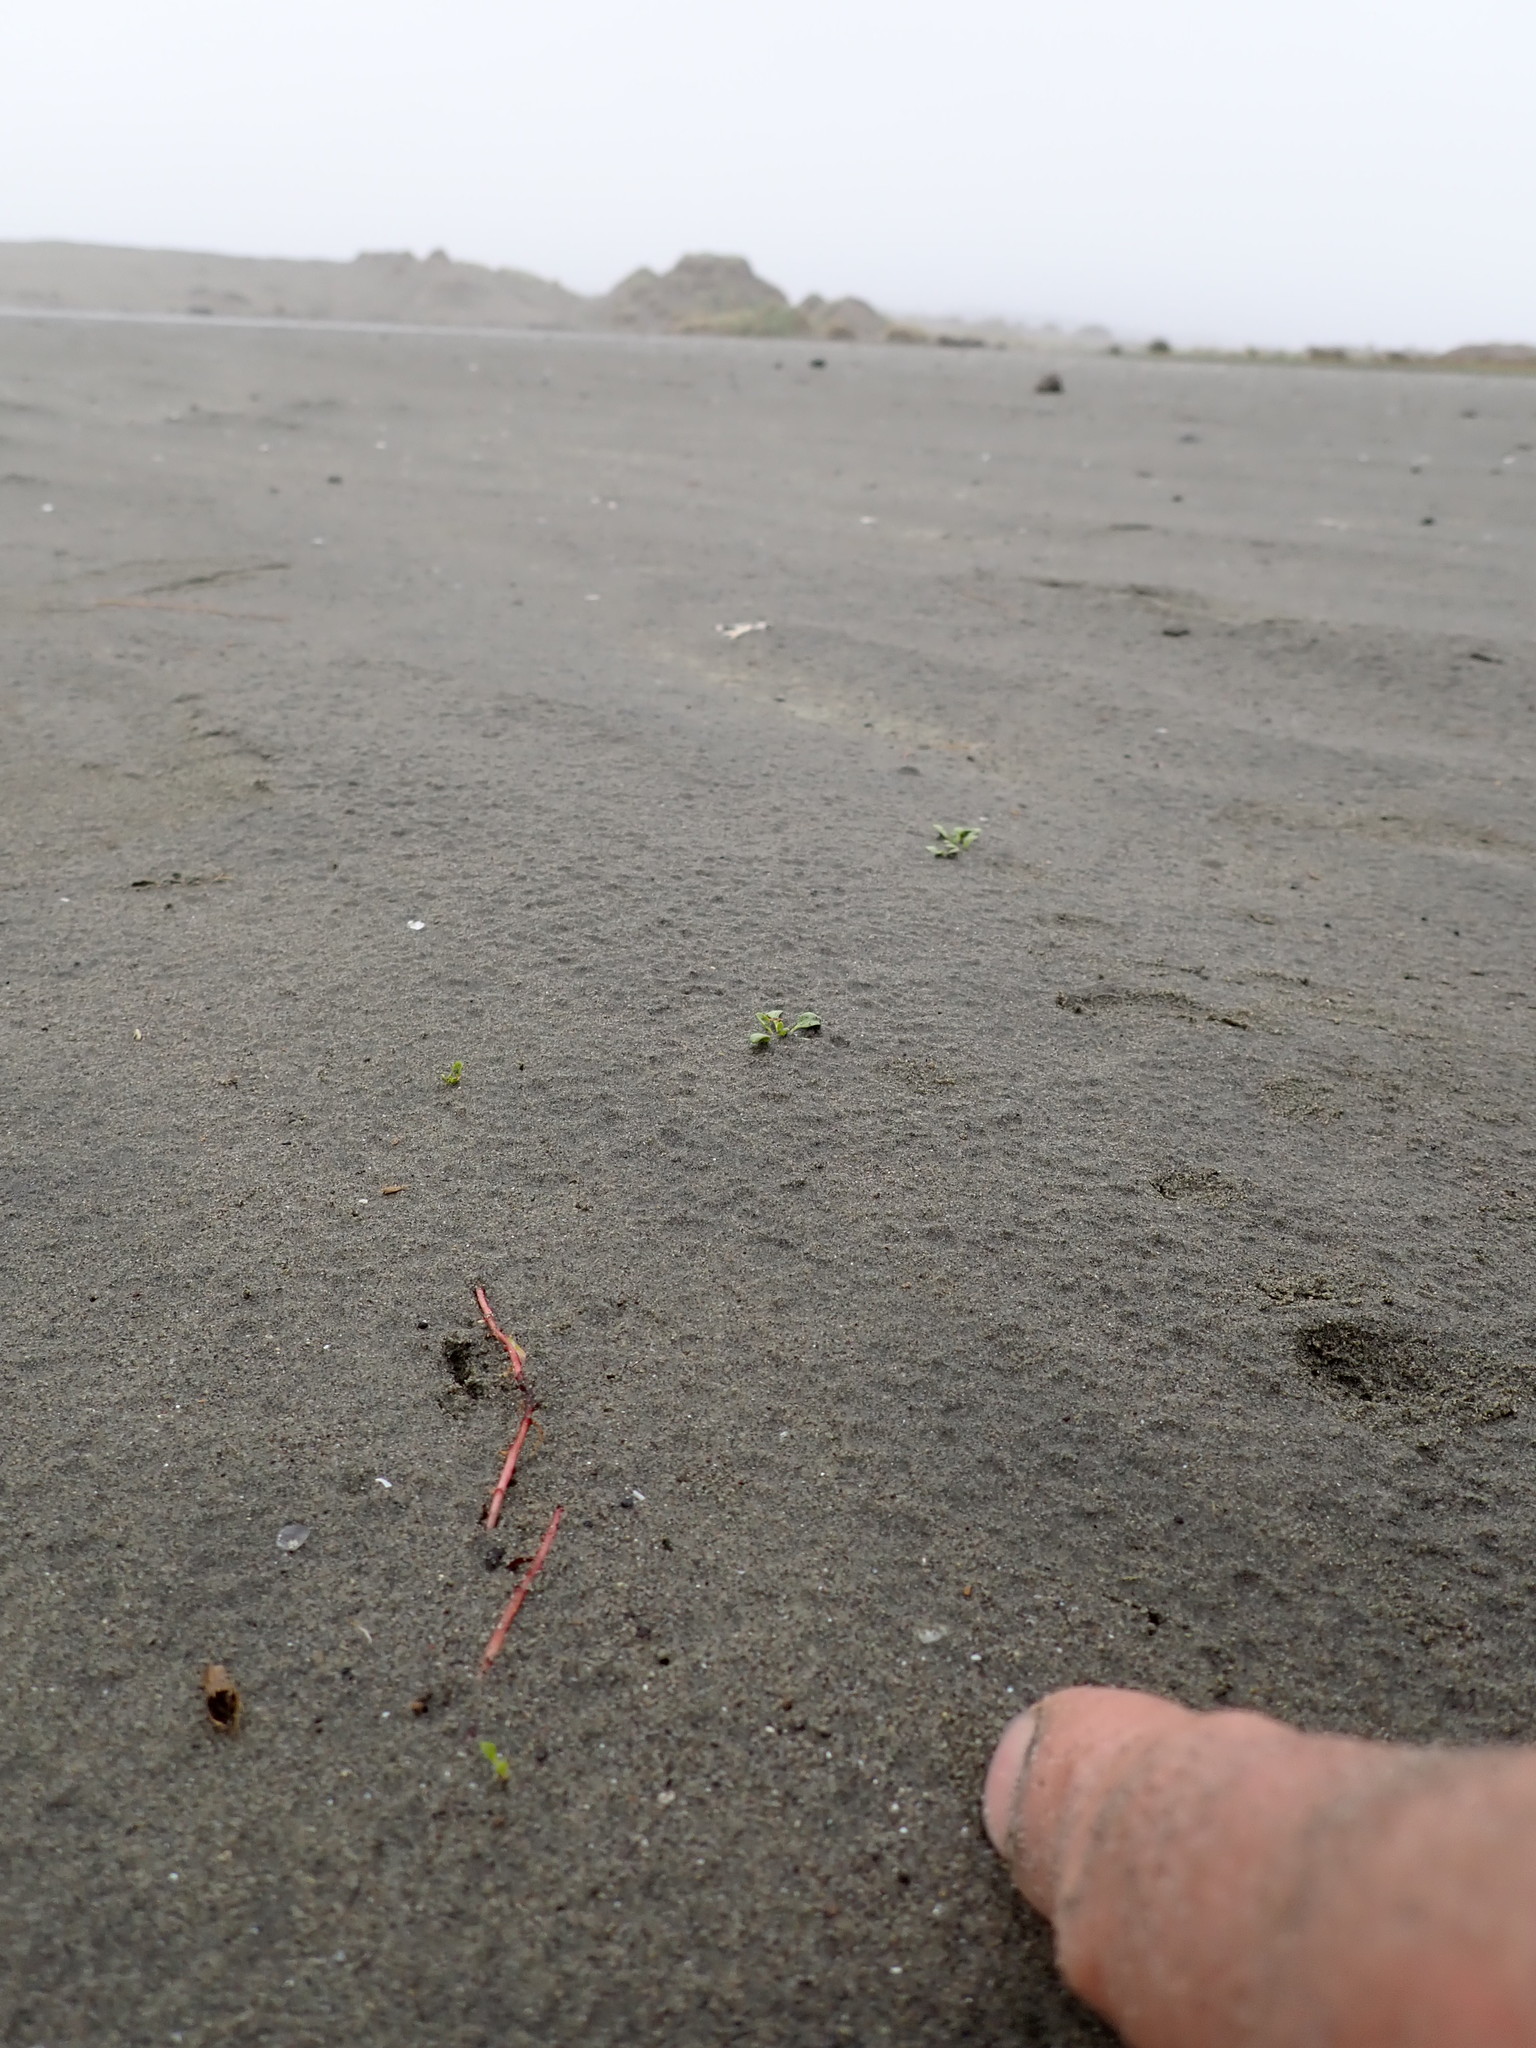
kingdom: Plantae
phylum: Tracheophyta
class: Magnoliopsida
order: Ericales
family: Primulaceae
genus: Samolus
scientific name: Samolus repens
